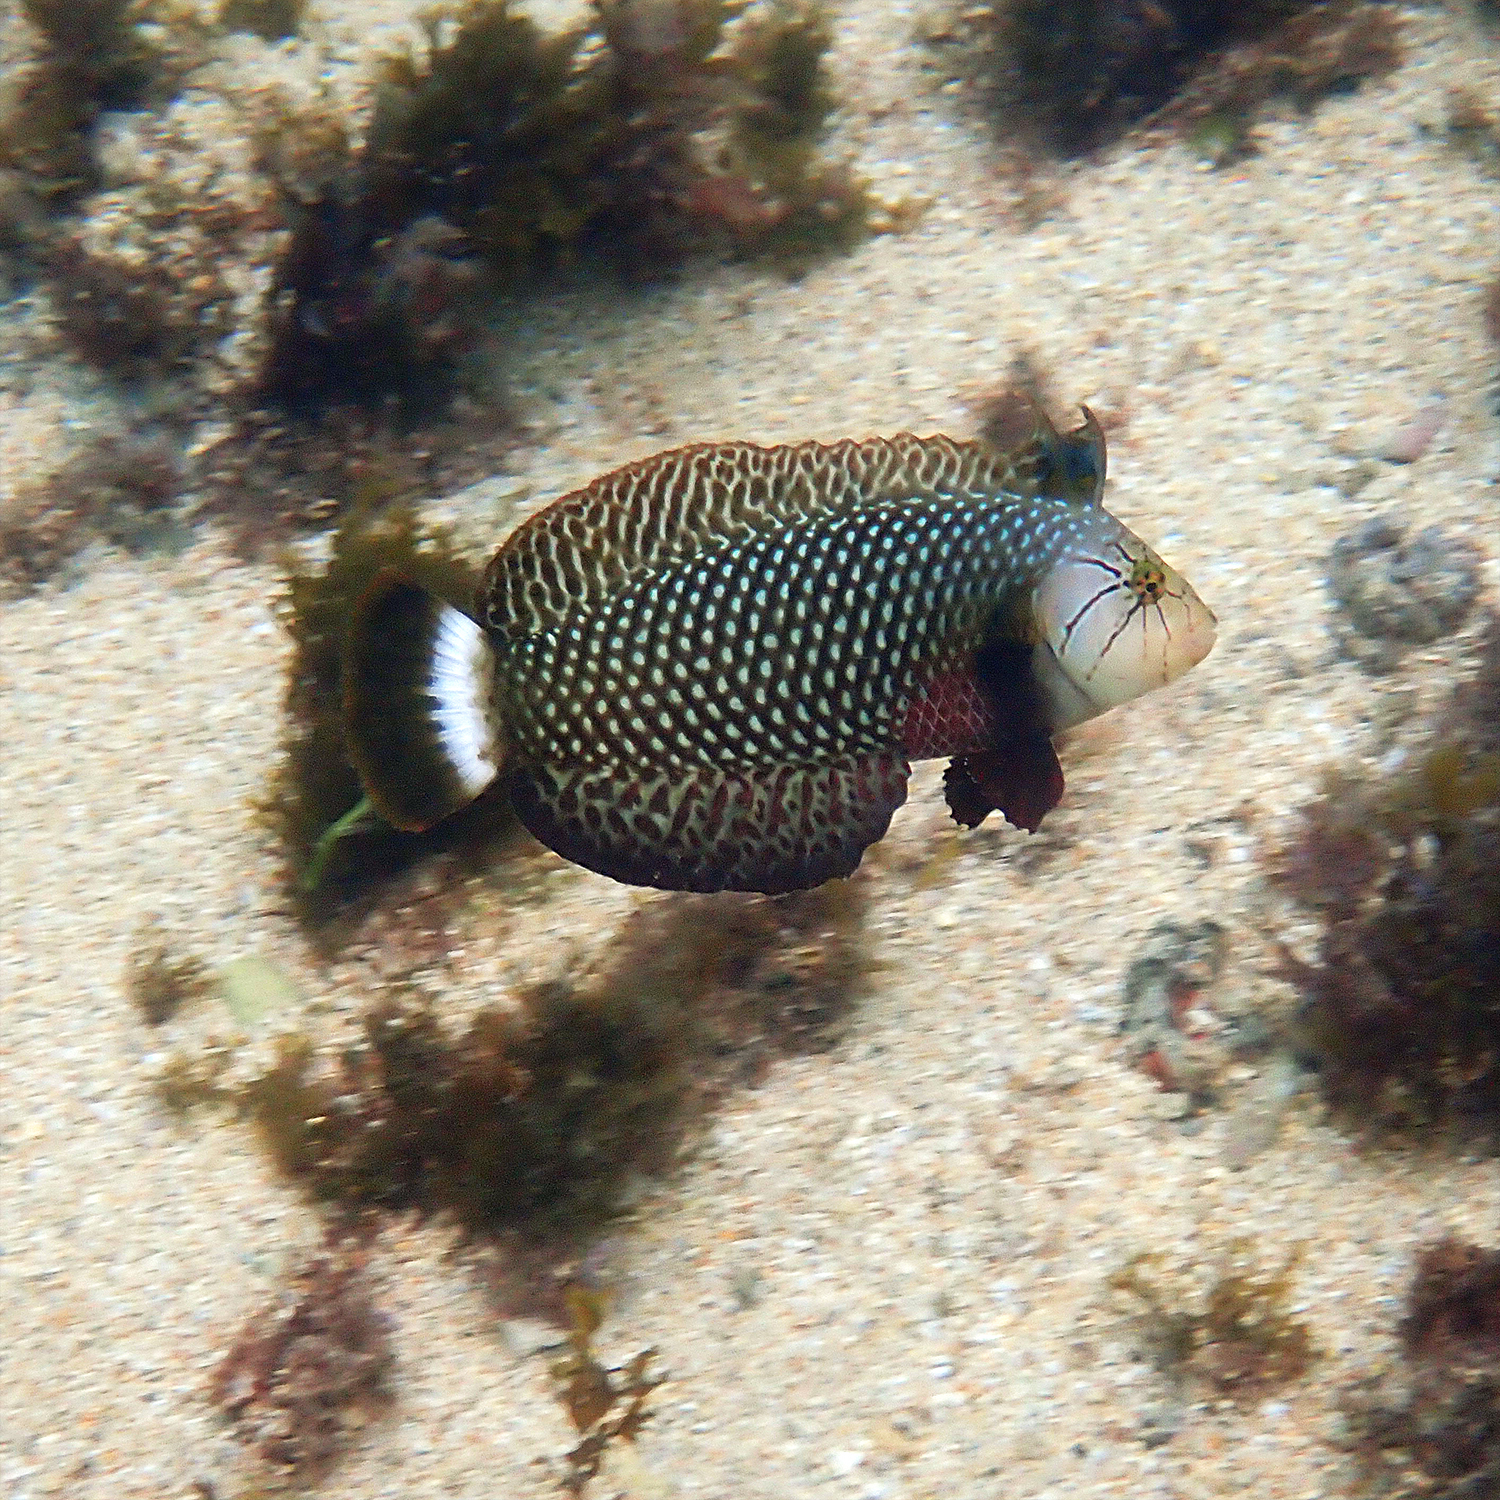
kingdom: Animalia
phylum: Chordata
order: Perciformes
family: Labridae
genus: Novaculichthys
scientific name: Novaculichthys taeniourus
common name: Rockmover wrasse
